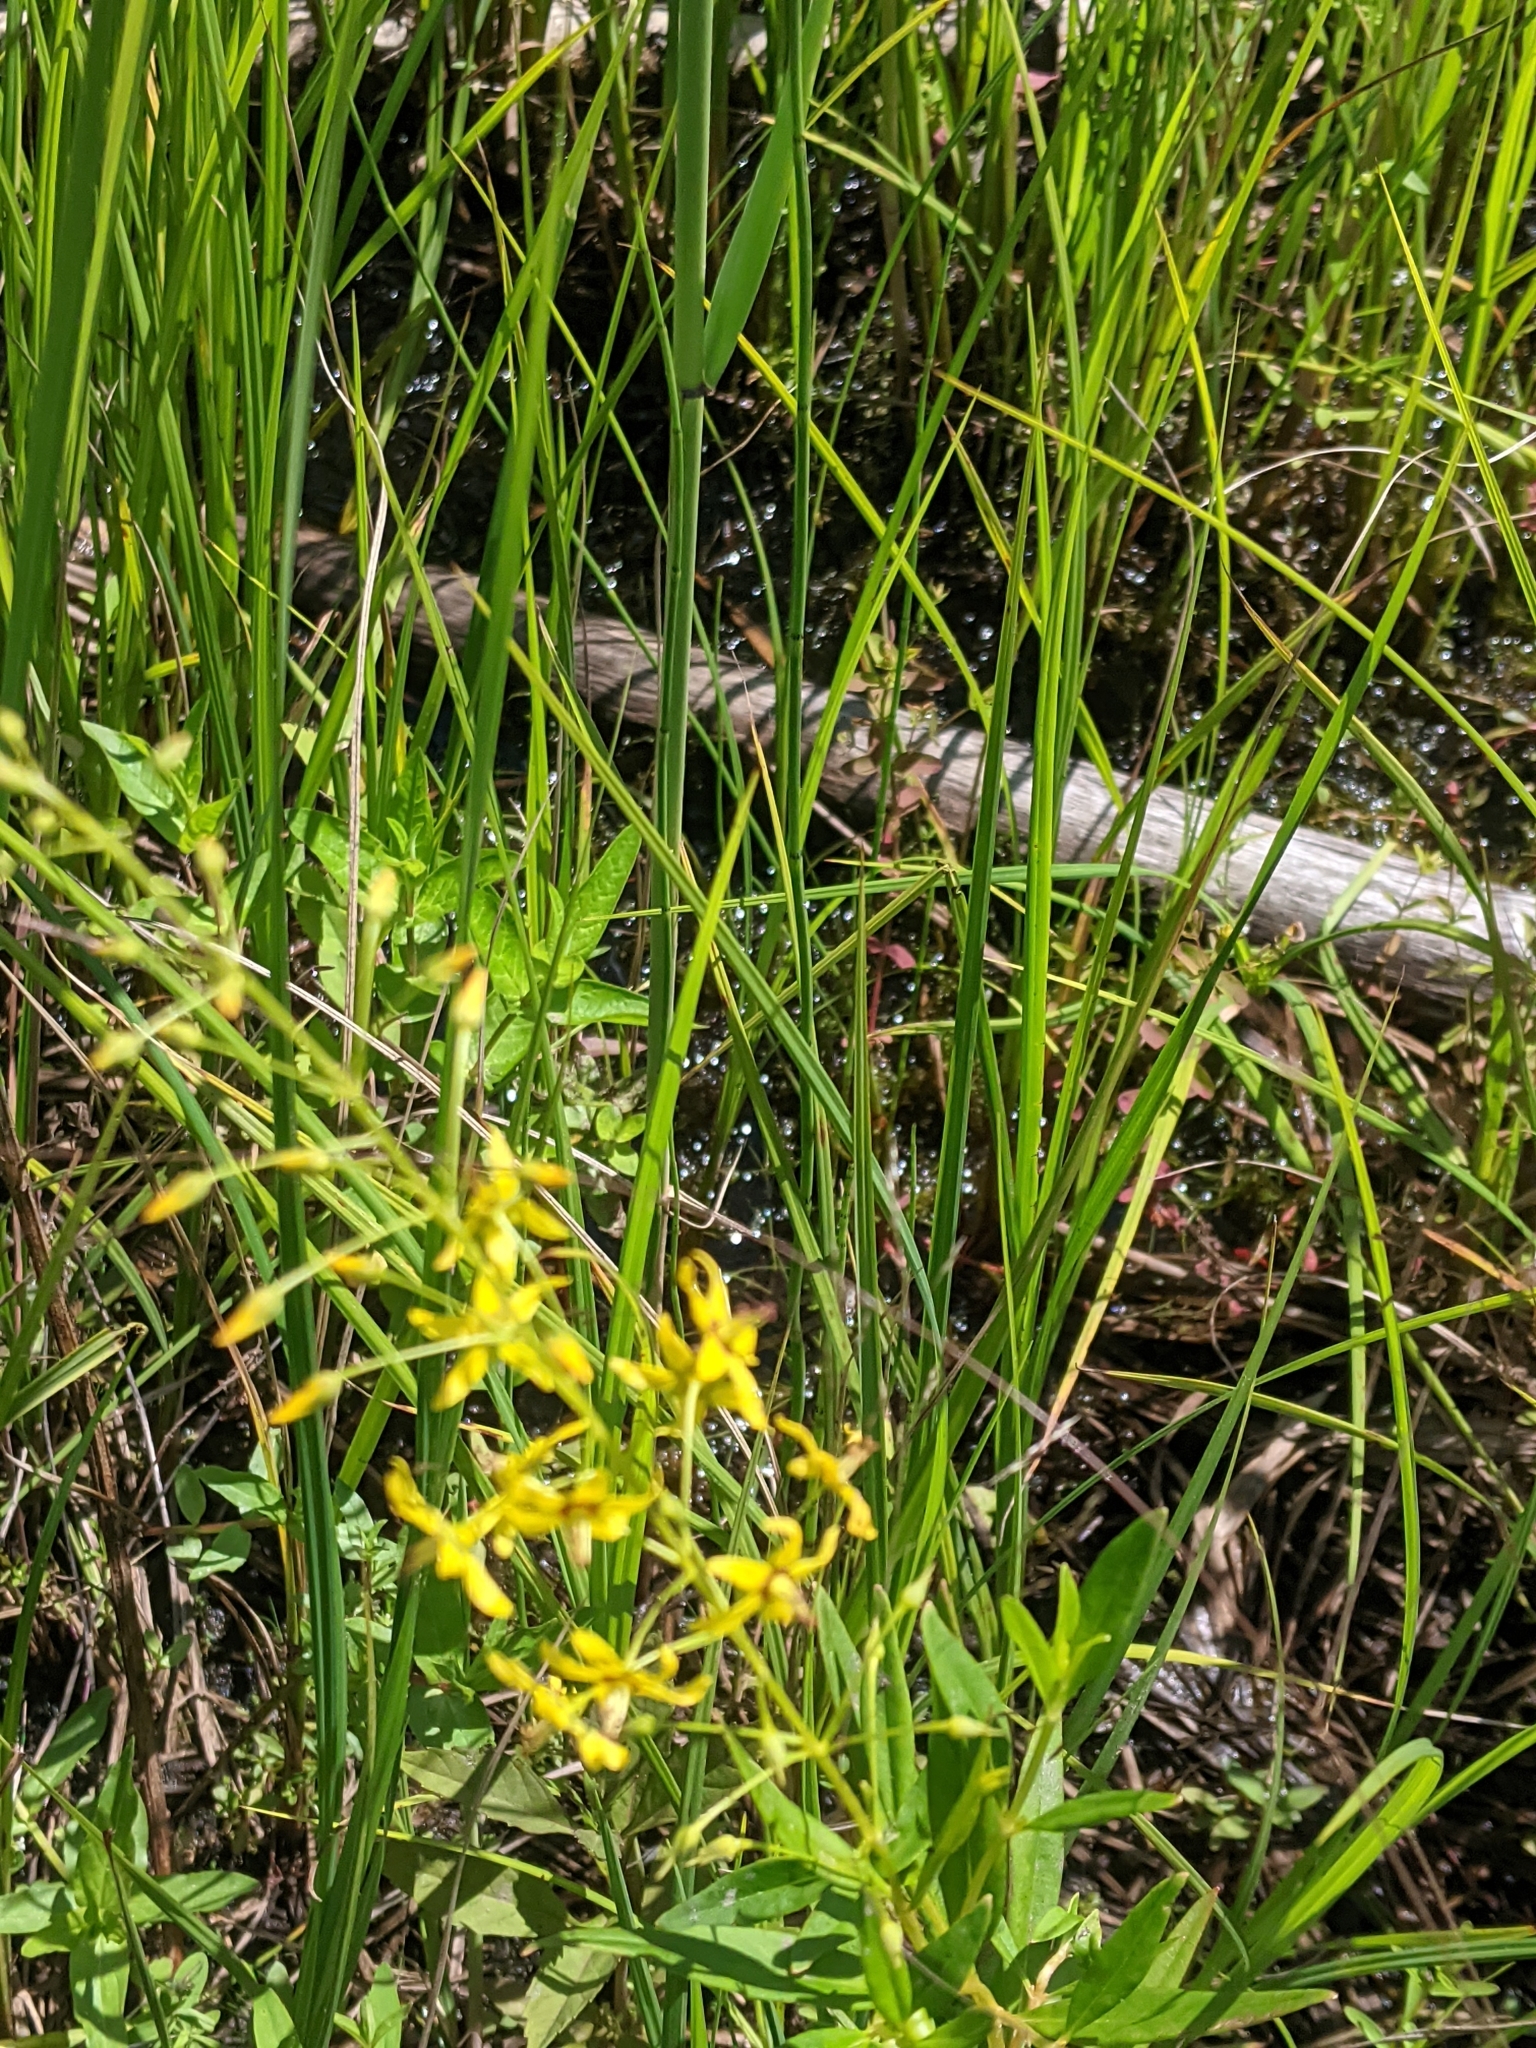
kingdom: Plantae
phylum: Tracheophyta
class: Magnoliopsida
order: Ericales
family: Primulaceae
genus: Lysimachia
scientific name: Lysimachia terrestris
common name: Lake loosestrife
